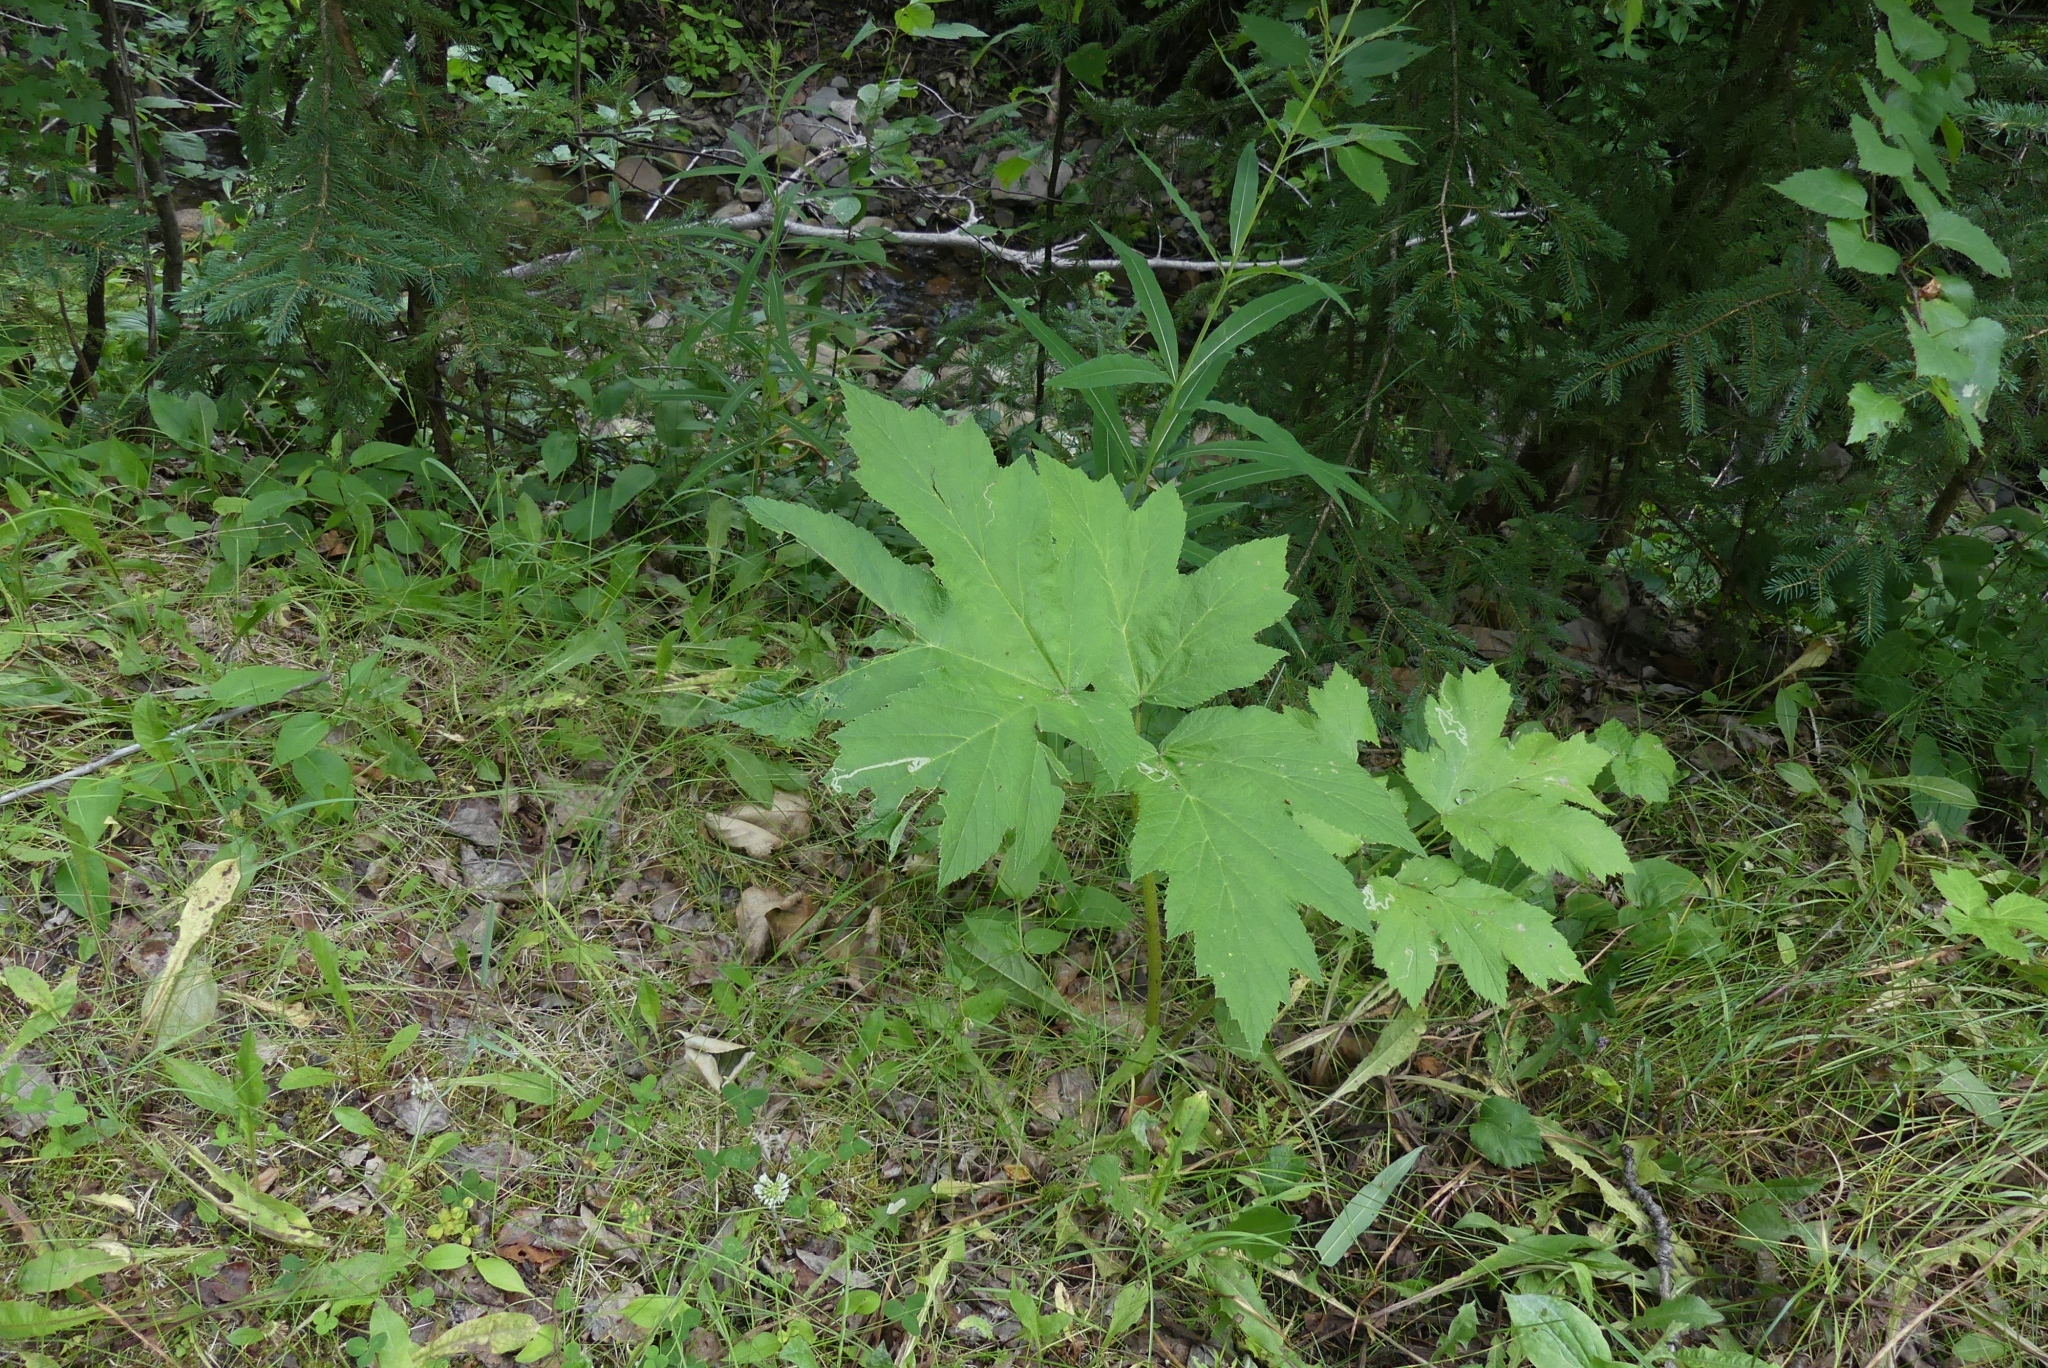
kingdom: Plantae
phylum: Tracheophyta
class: Magnoliopsida
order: Apiales
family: Apiaceae
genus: Heracleum
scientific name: Heracleum maximum
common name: American cow parsnip
